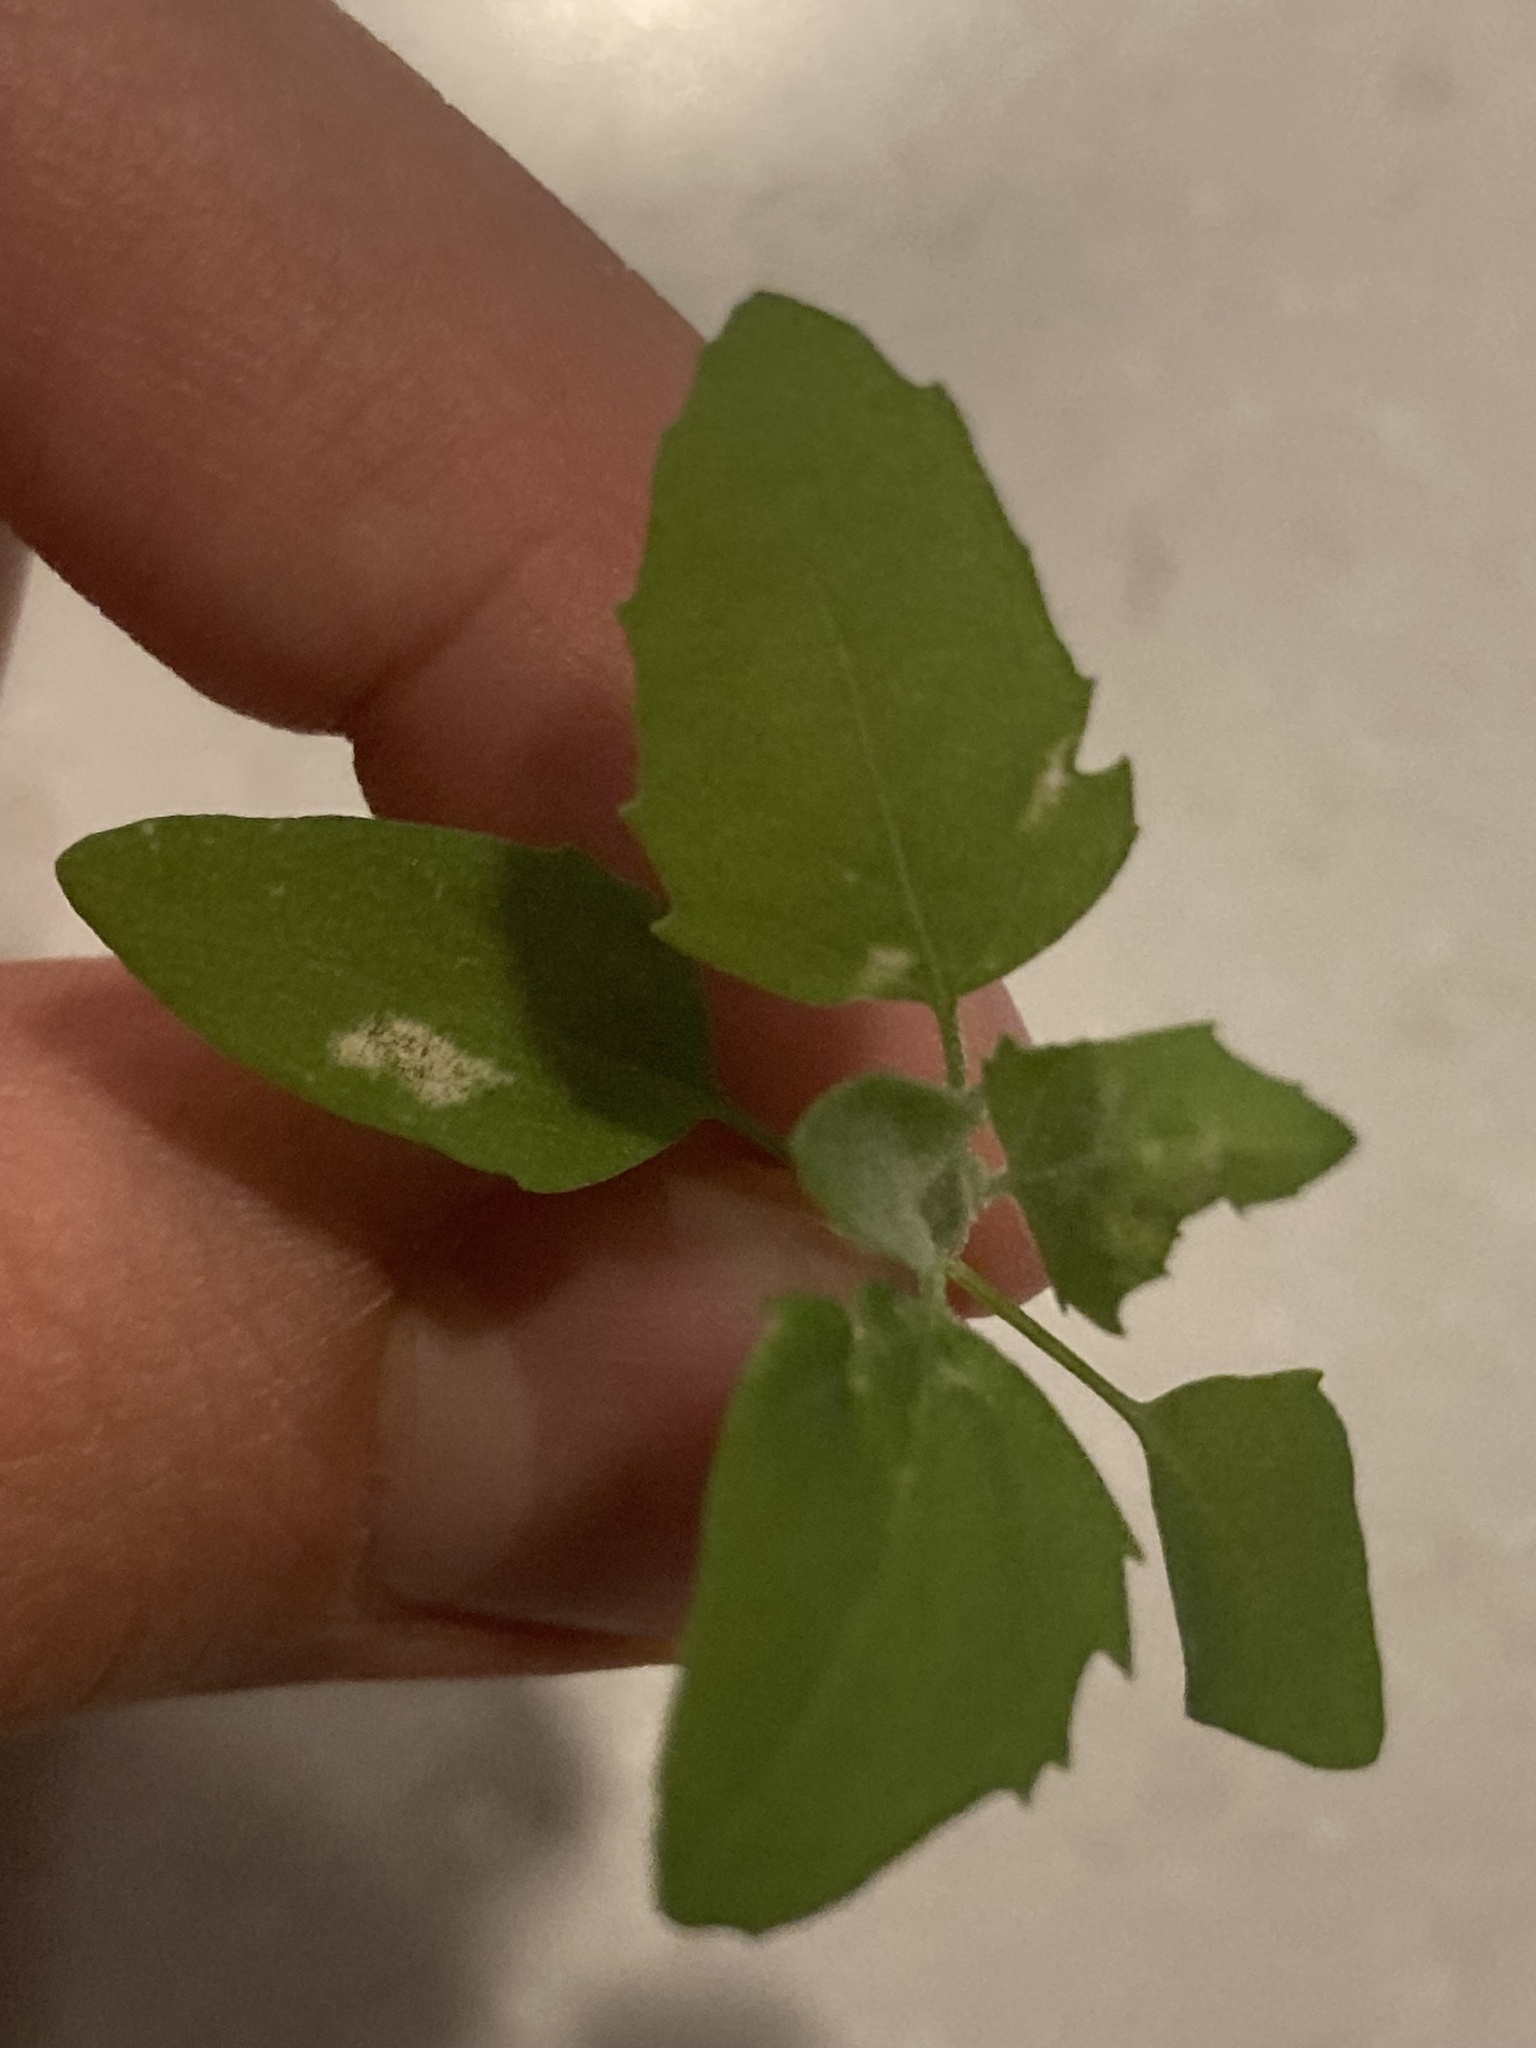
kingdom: Plantae
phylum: Tracheophyta
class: Magnoliopsida
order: Caryophyllales
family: Amaranthaceae
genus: Chenopodium
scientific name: Chenopodium album
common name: Fat-hen
